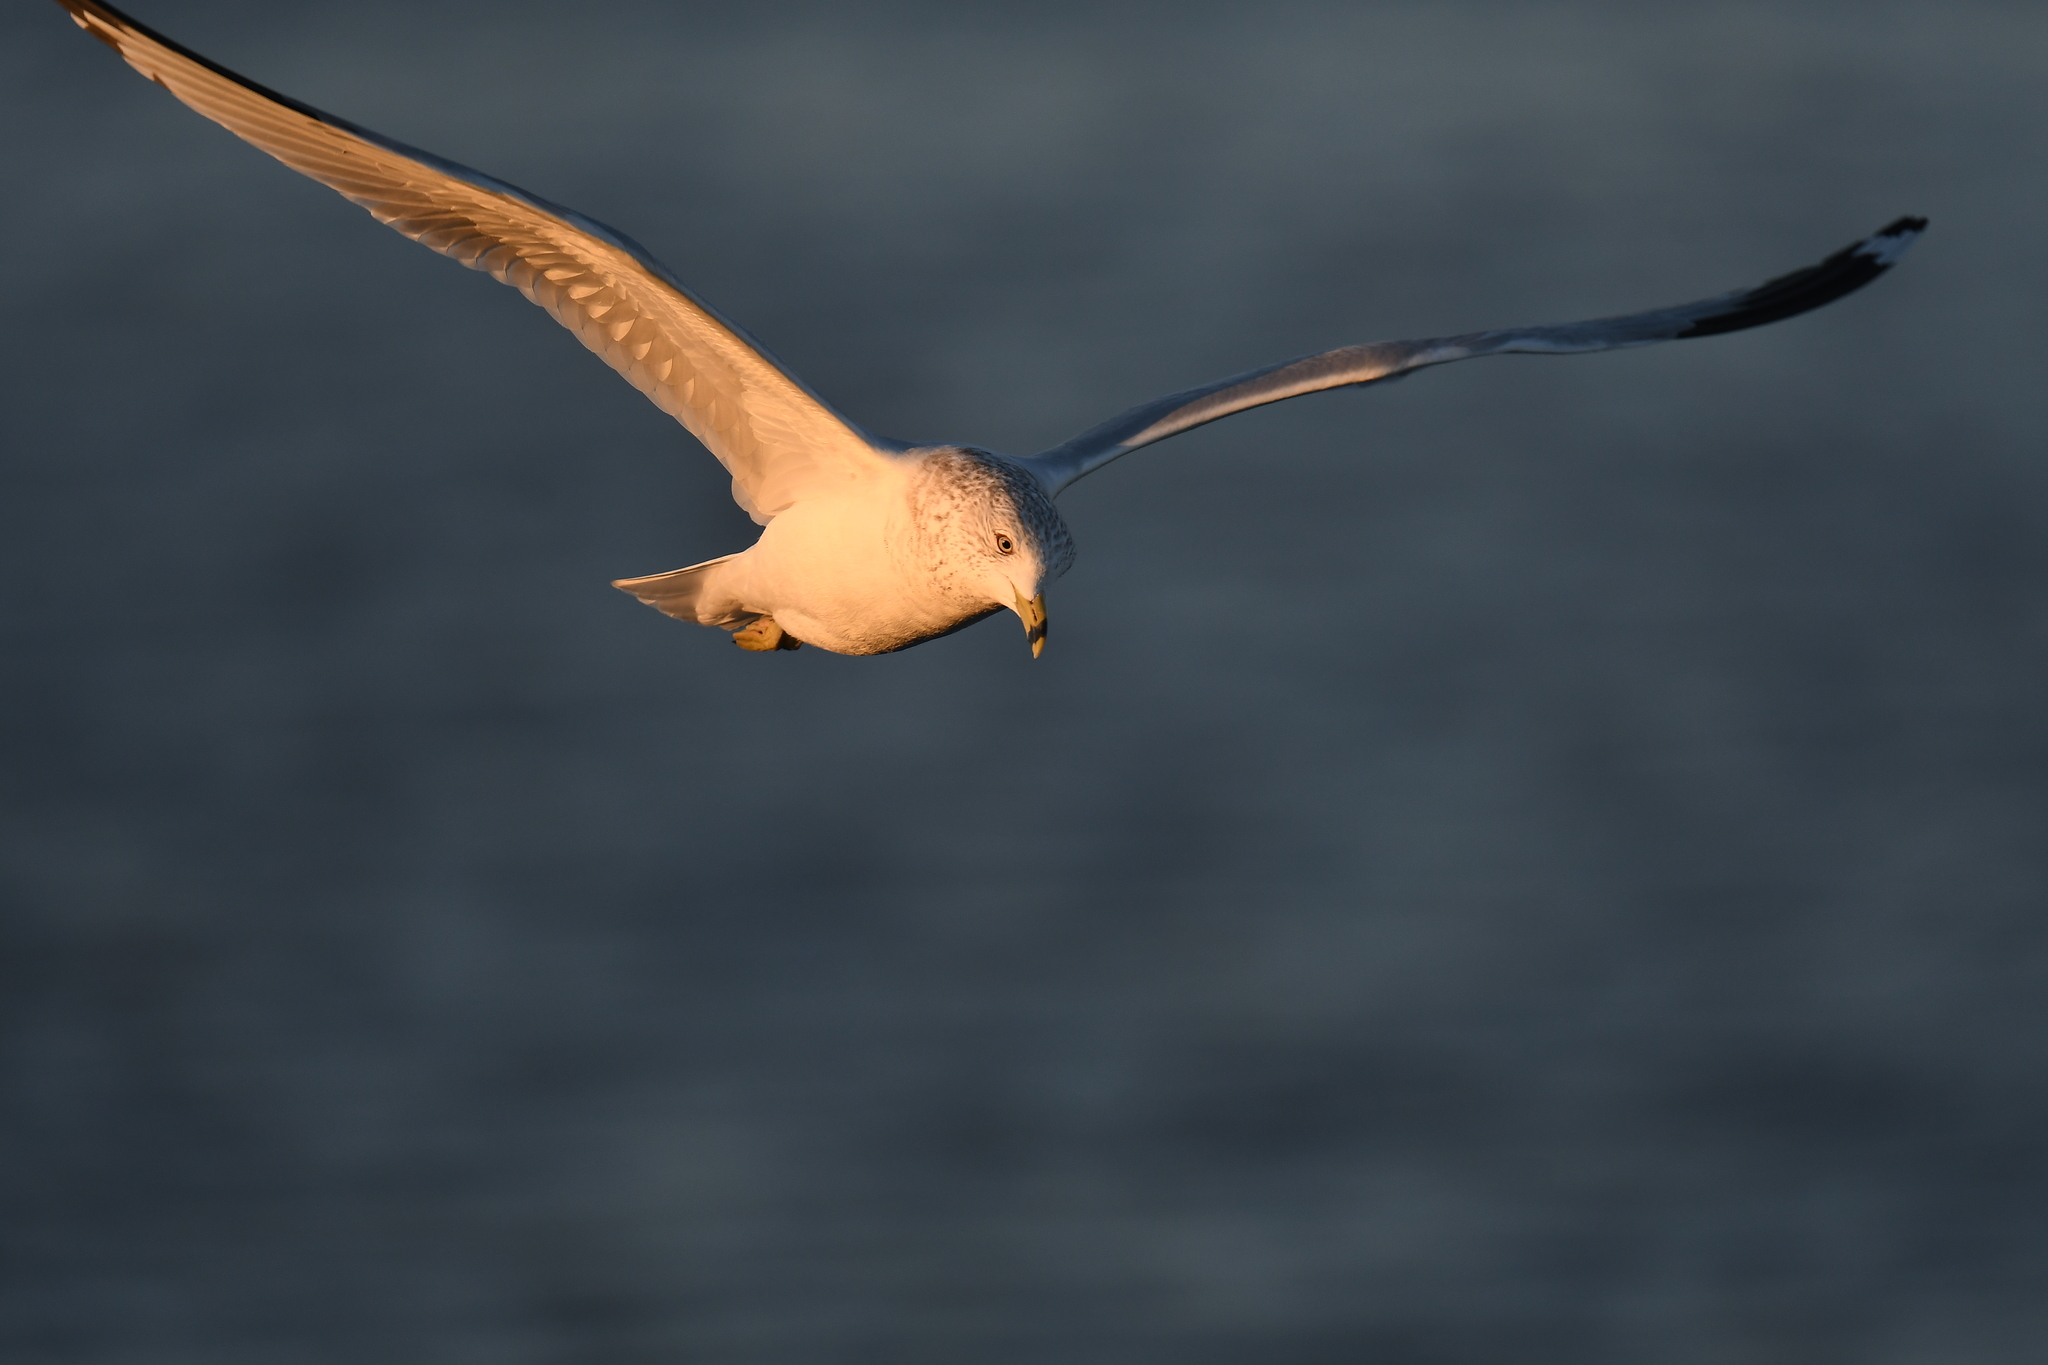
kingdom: Animalia
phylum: Chordata
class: Aves
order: Charadriiformes
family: Laridae
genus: Larus
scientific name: Larus delawarensis
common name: Ring-billed gull
